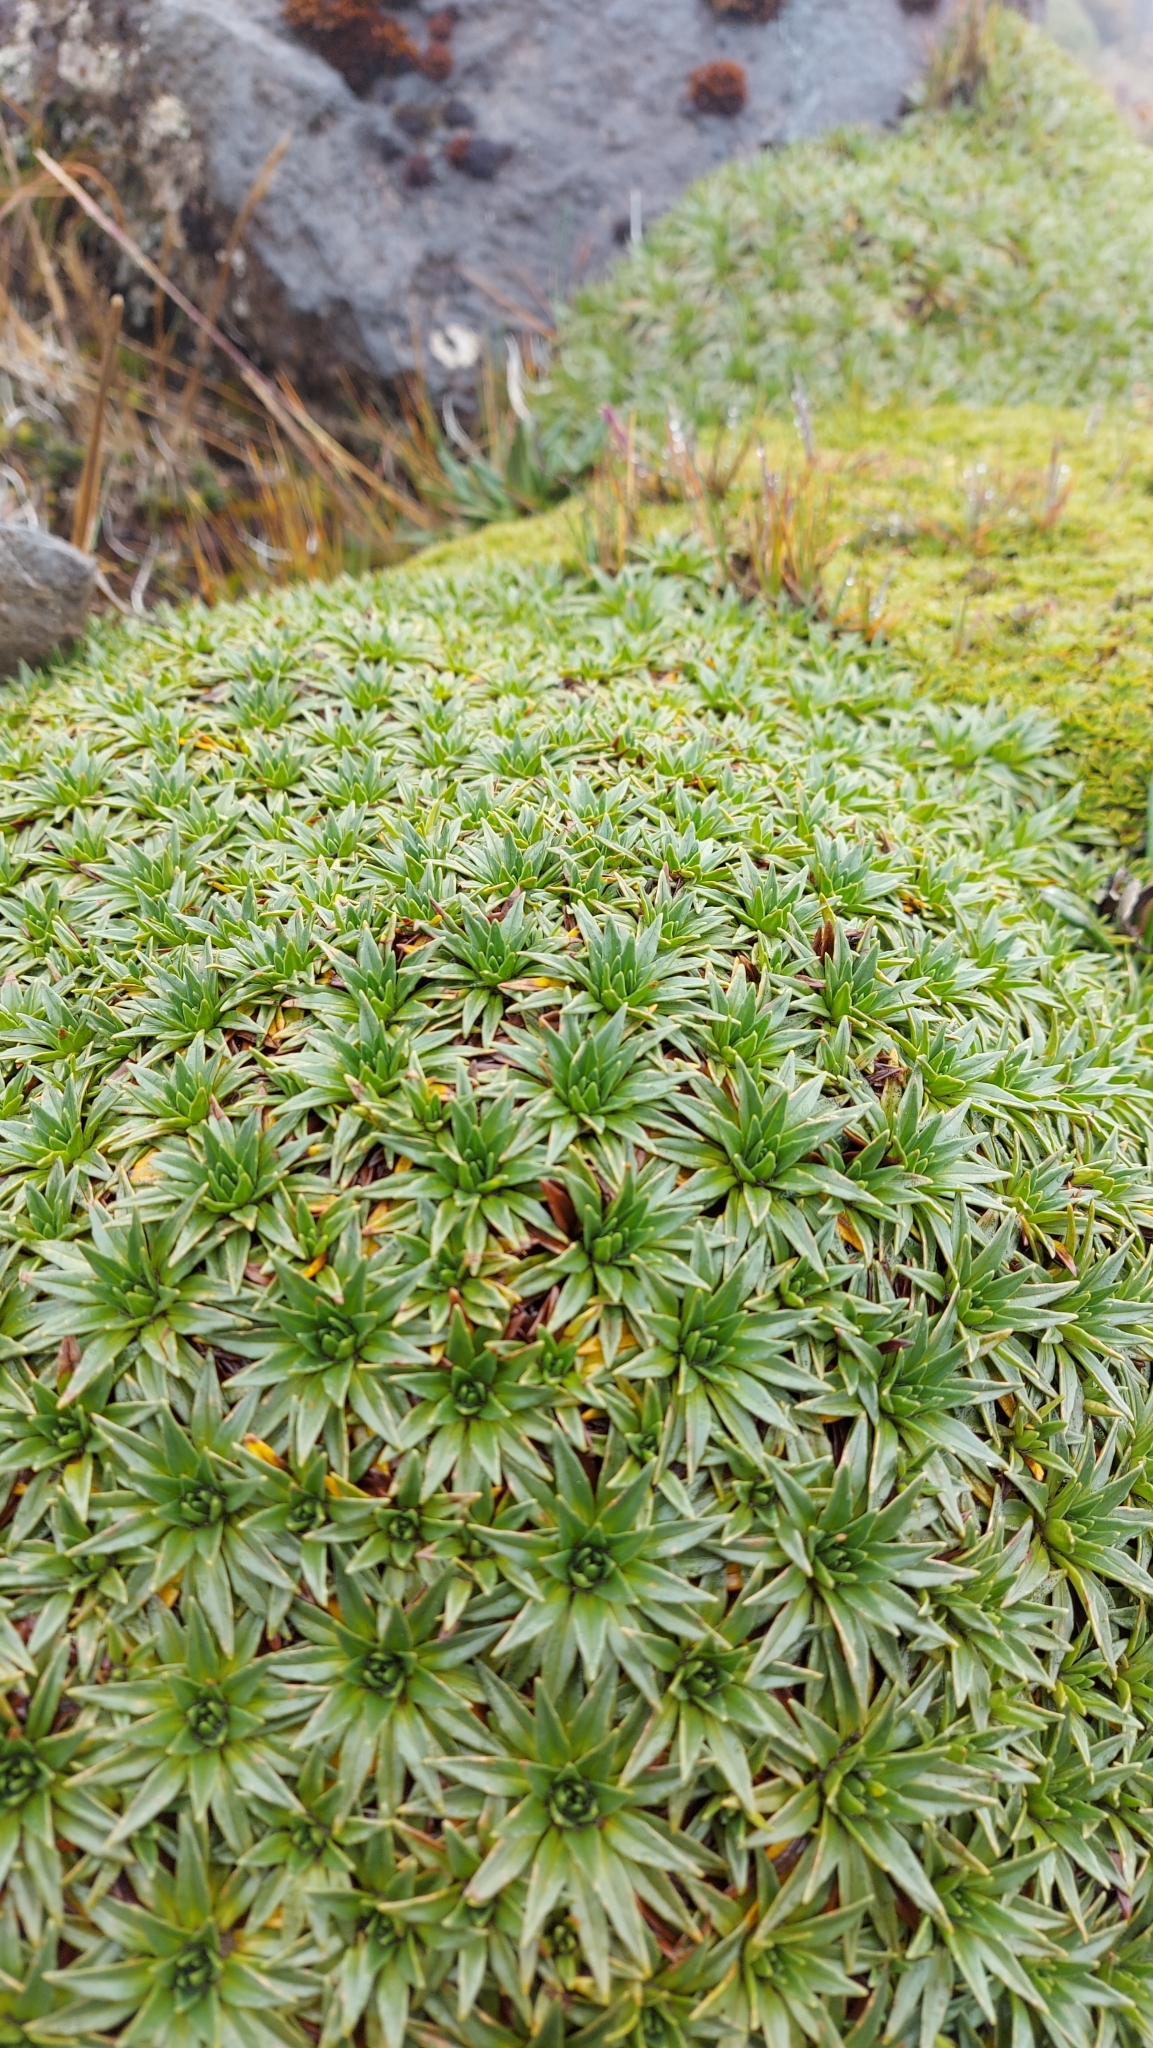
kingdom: Plantae
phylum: Tracheophyta
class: Magnoliopsida
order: Lamiales
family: Plantaginaceae
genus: Plantago
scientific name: Plantago rigida
